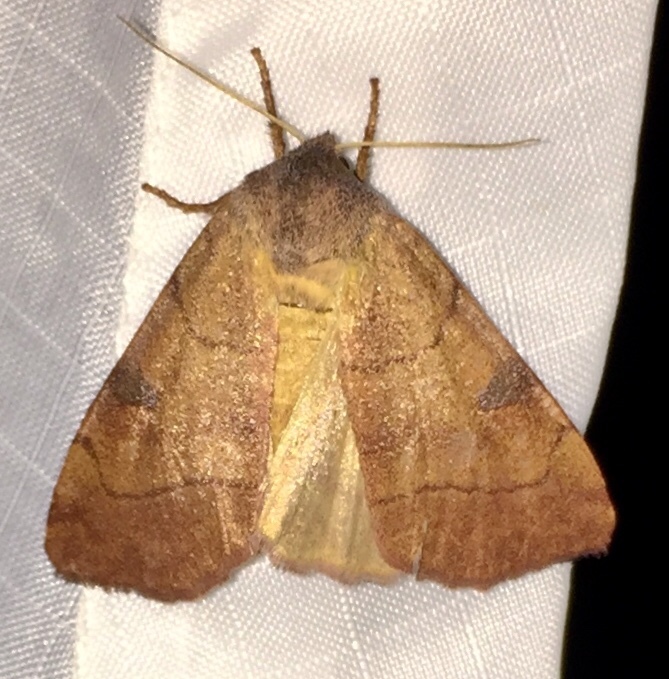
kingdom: Animalia
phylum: Arthropoda
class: Insecta
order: Lepidoptera
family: Noctuidae
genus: Choephora
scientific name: Choephora fungorum
